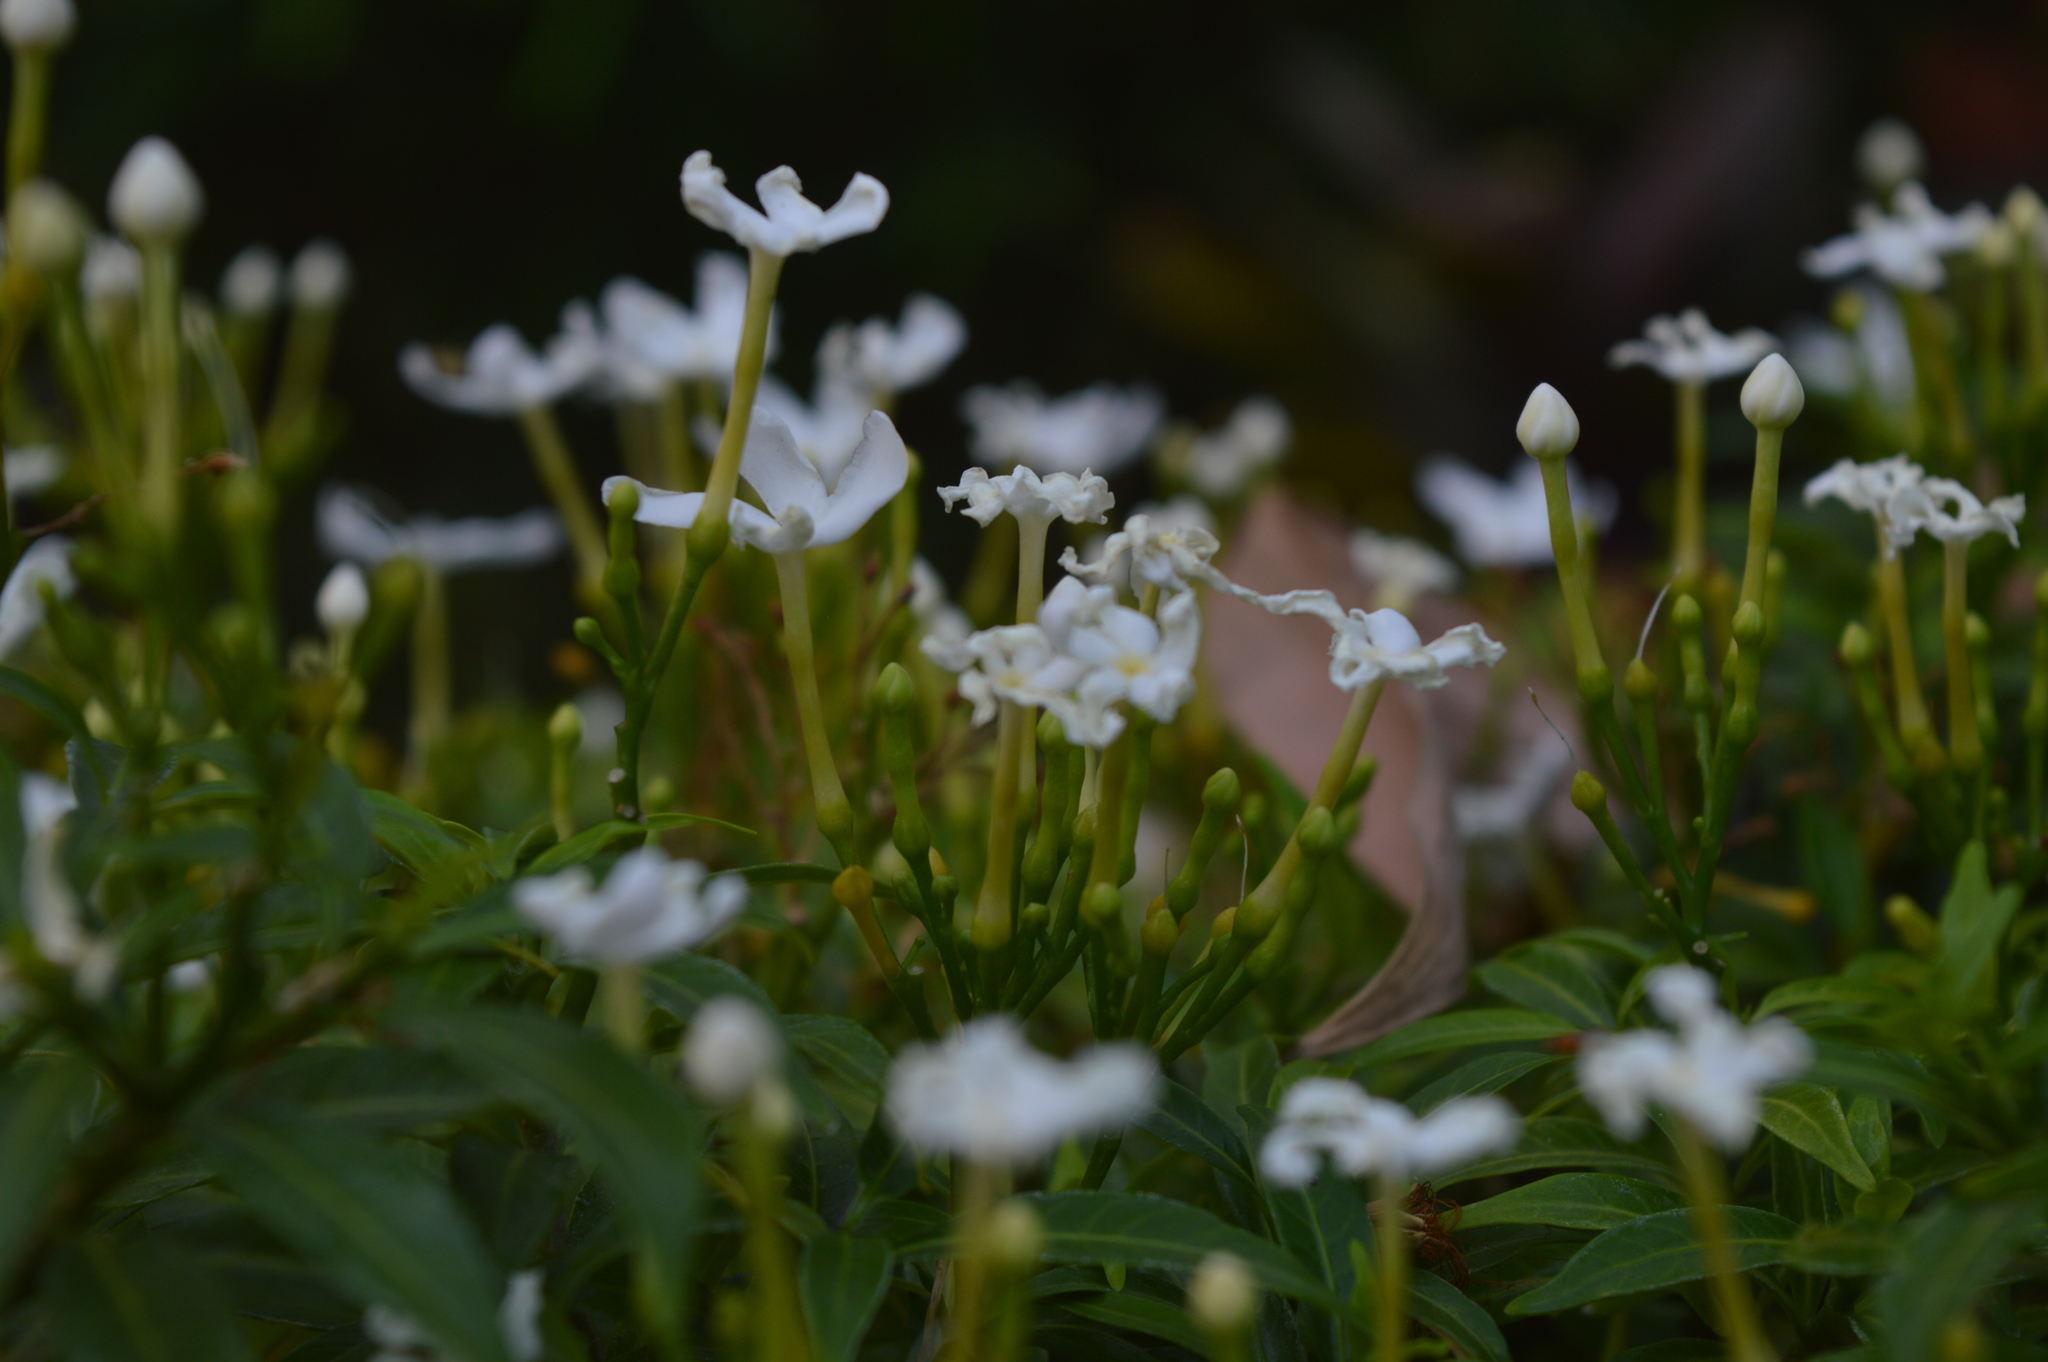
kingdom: Plantae
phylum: Tracheophyta
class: Magnoliopsida
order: Gentianales
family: Apocynaceae
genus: Tabernaemontana
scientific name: Tabernaemontana divaricata
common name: Pinwheelflower
